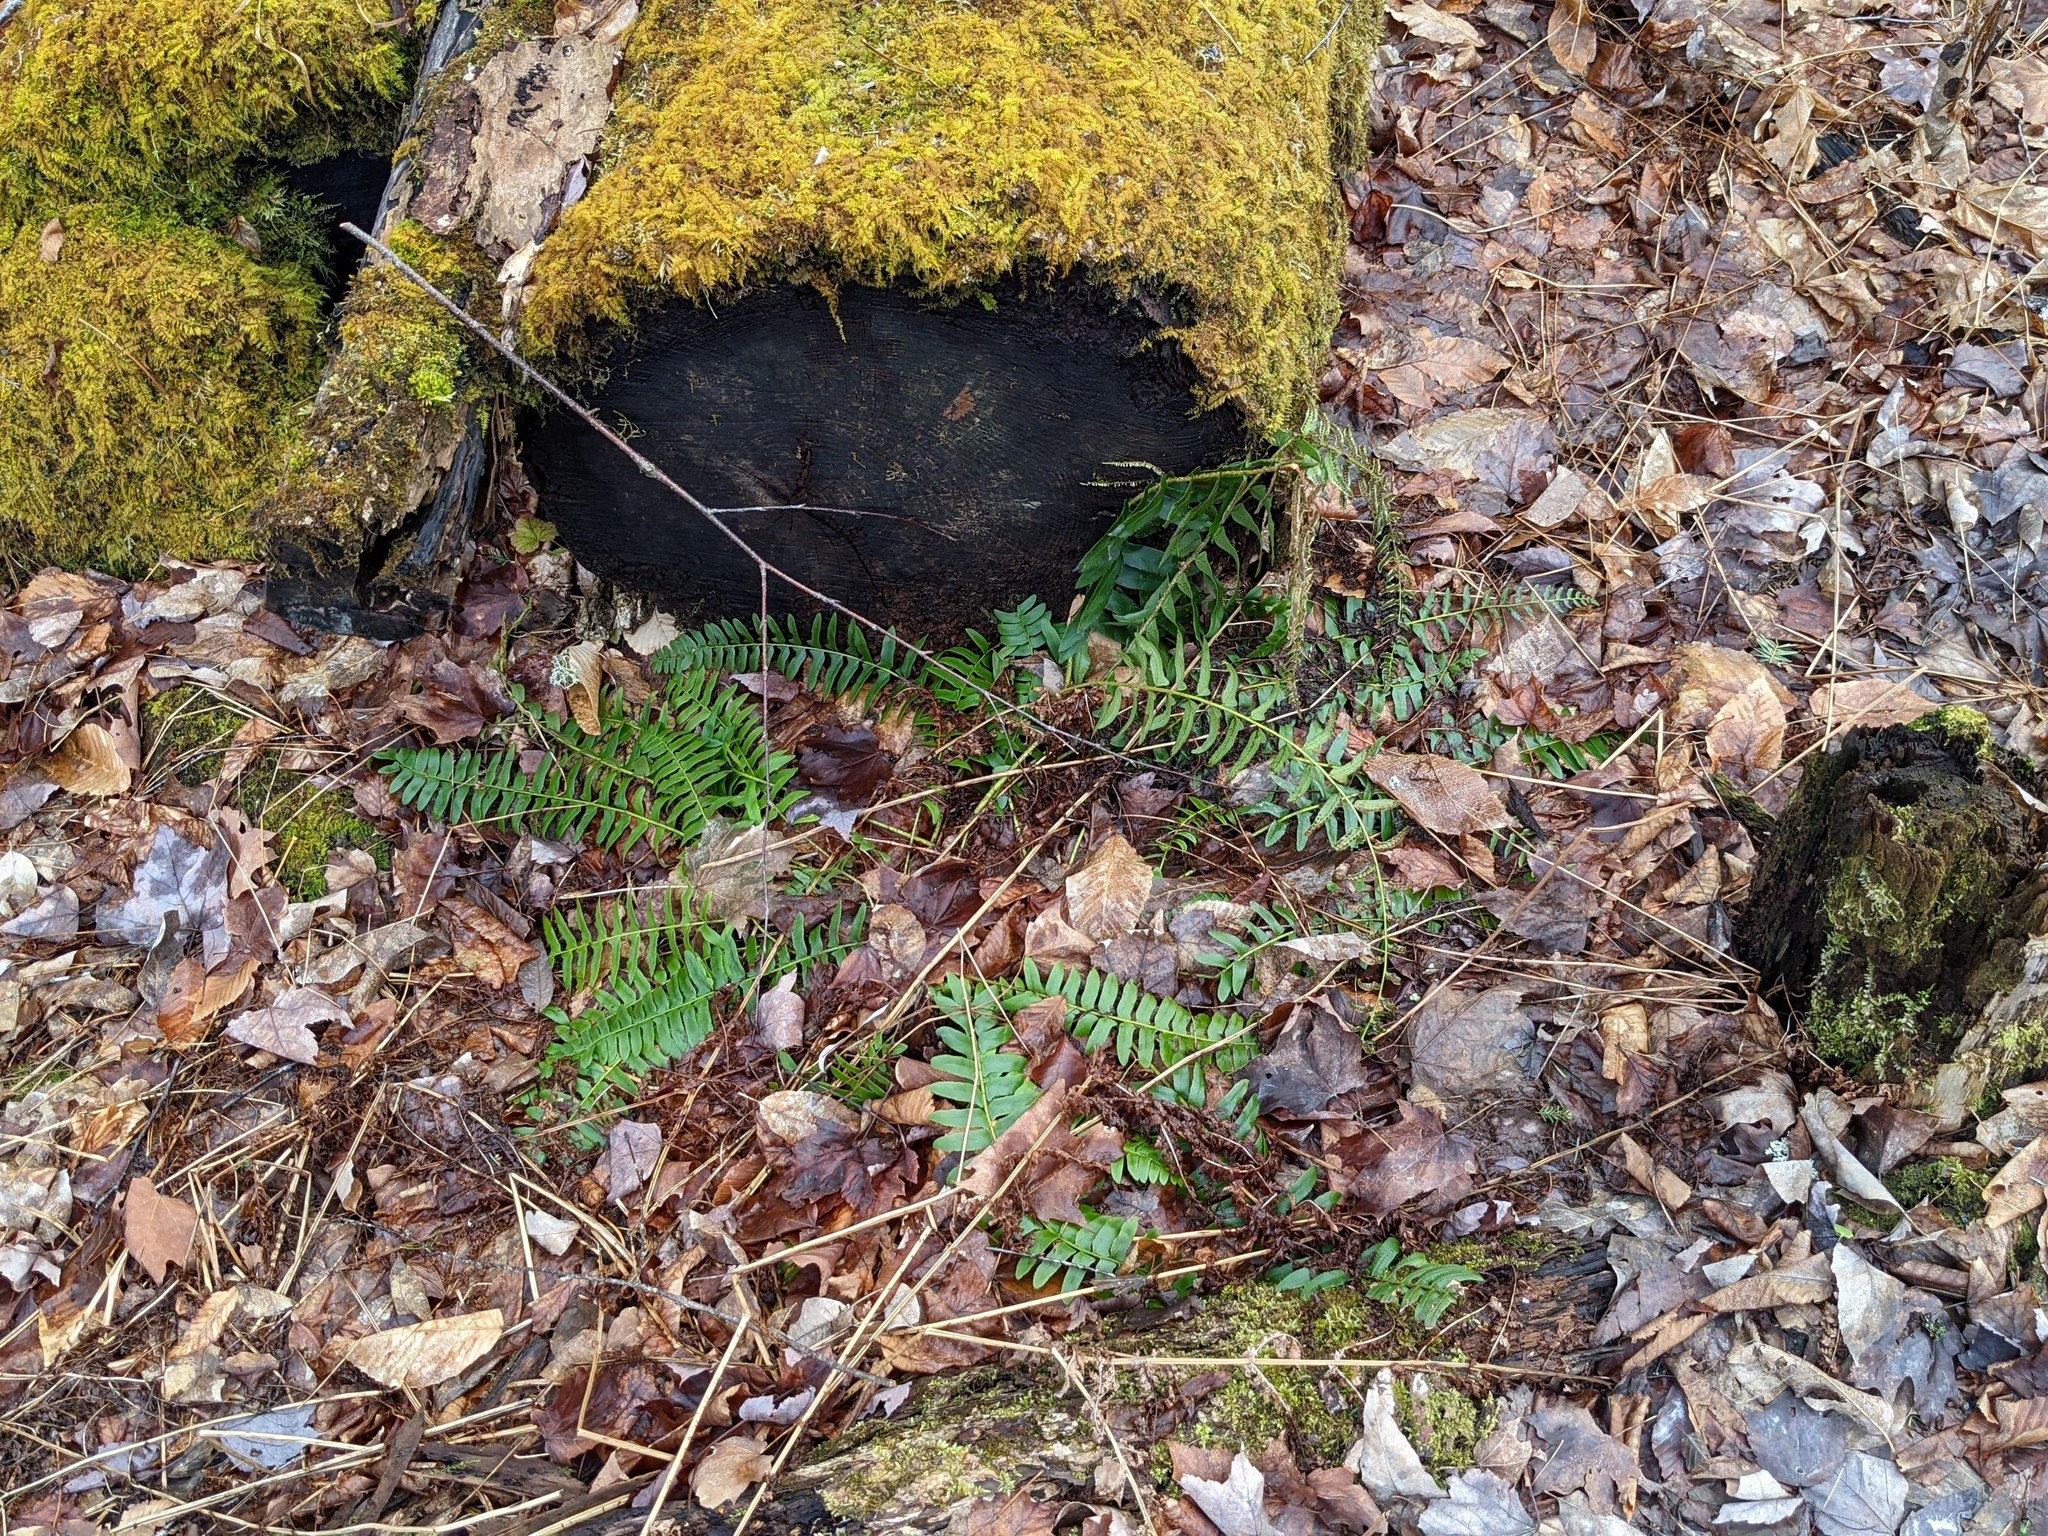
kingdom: Plantae
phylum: Tracheophyta
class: Polypodiopsida
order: Polypodiales
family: Dryopteridaceae
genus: Polystichum
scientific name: Polystichum acrostichoides
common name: Christmas fern
